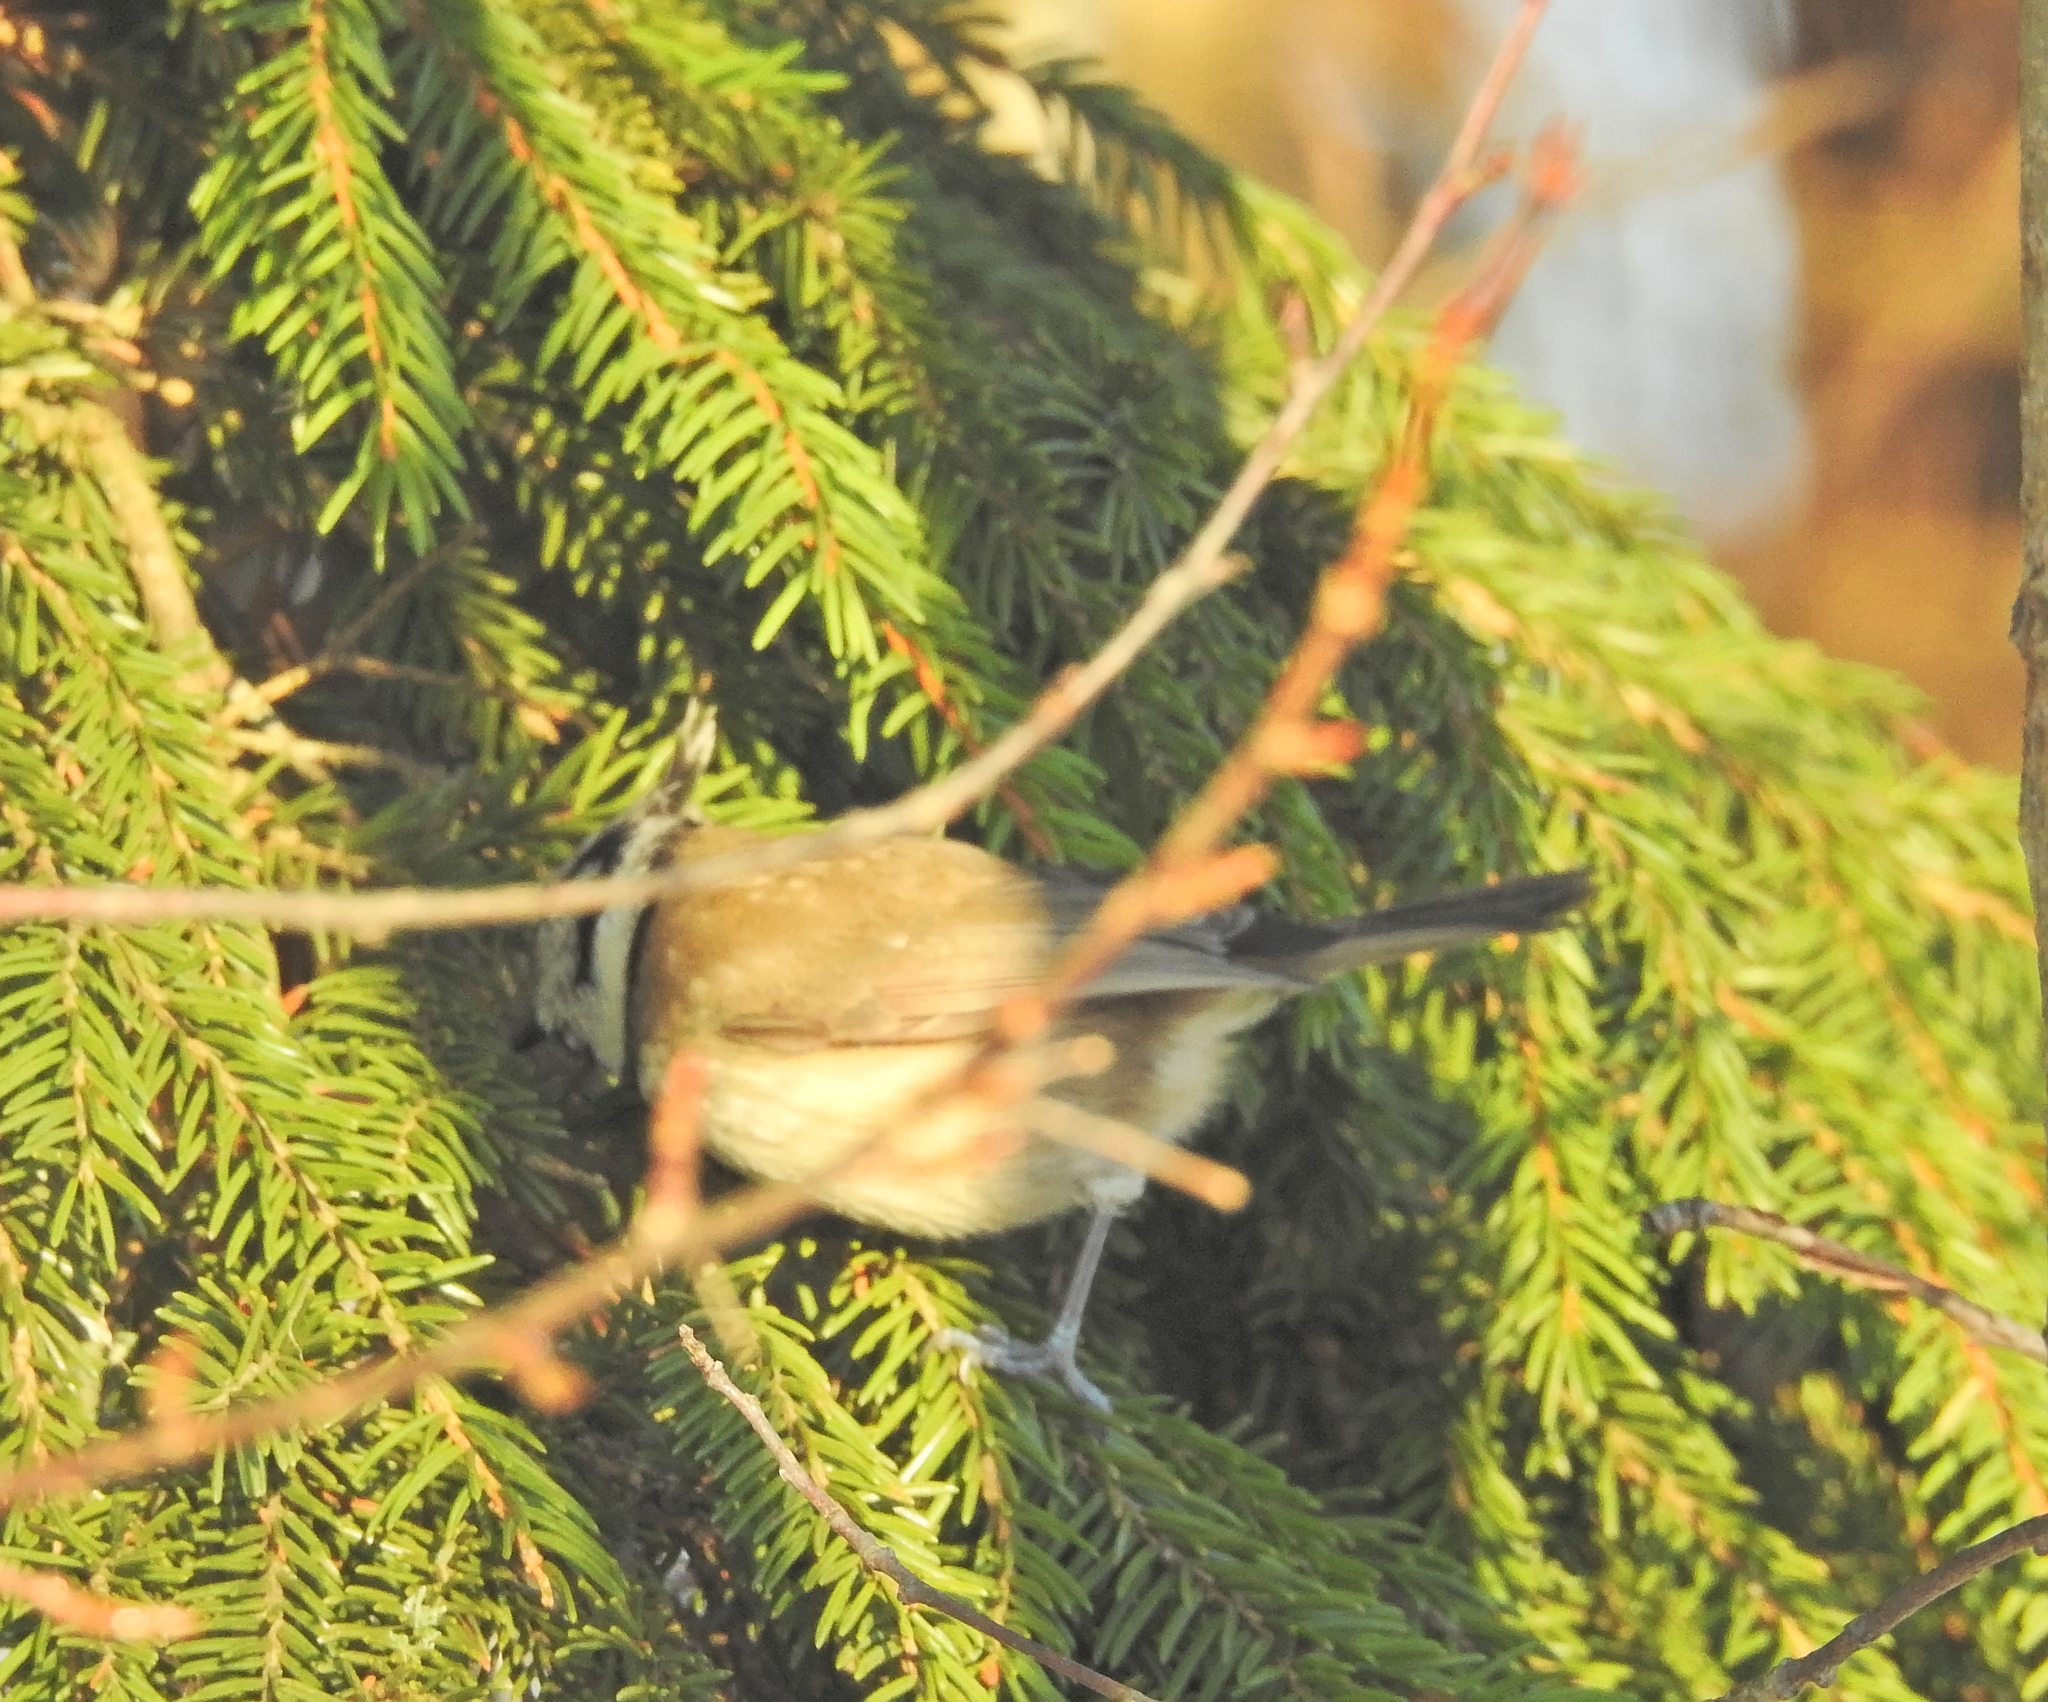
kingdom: Animalia
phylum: Chordata
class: Aves
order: Passeriformes
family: Paridae
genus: Lophophanes
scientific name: Lophophanes cristatus
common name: European crested tit
